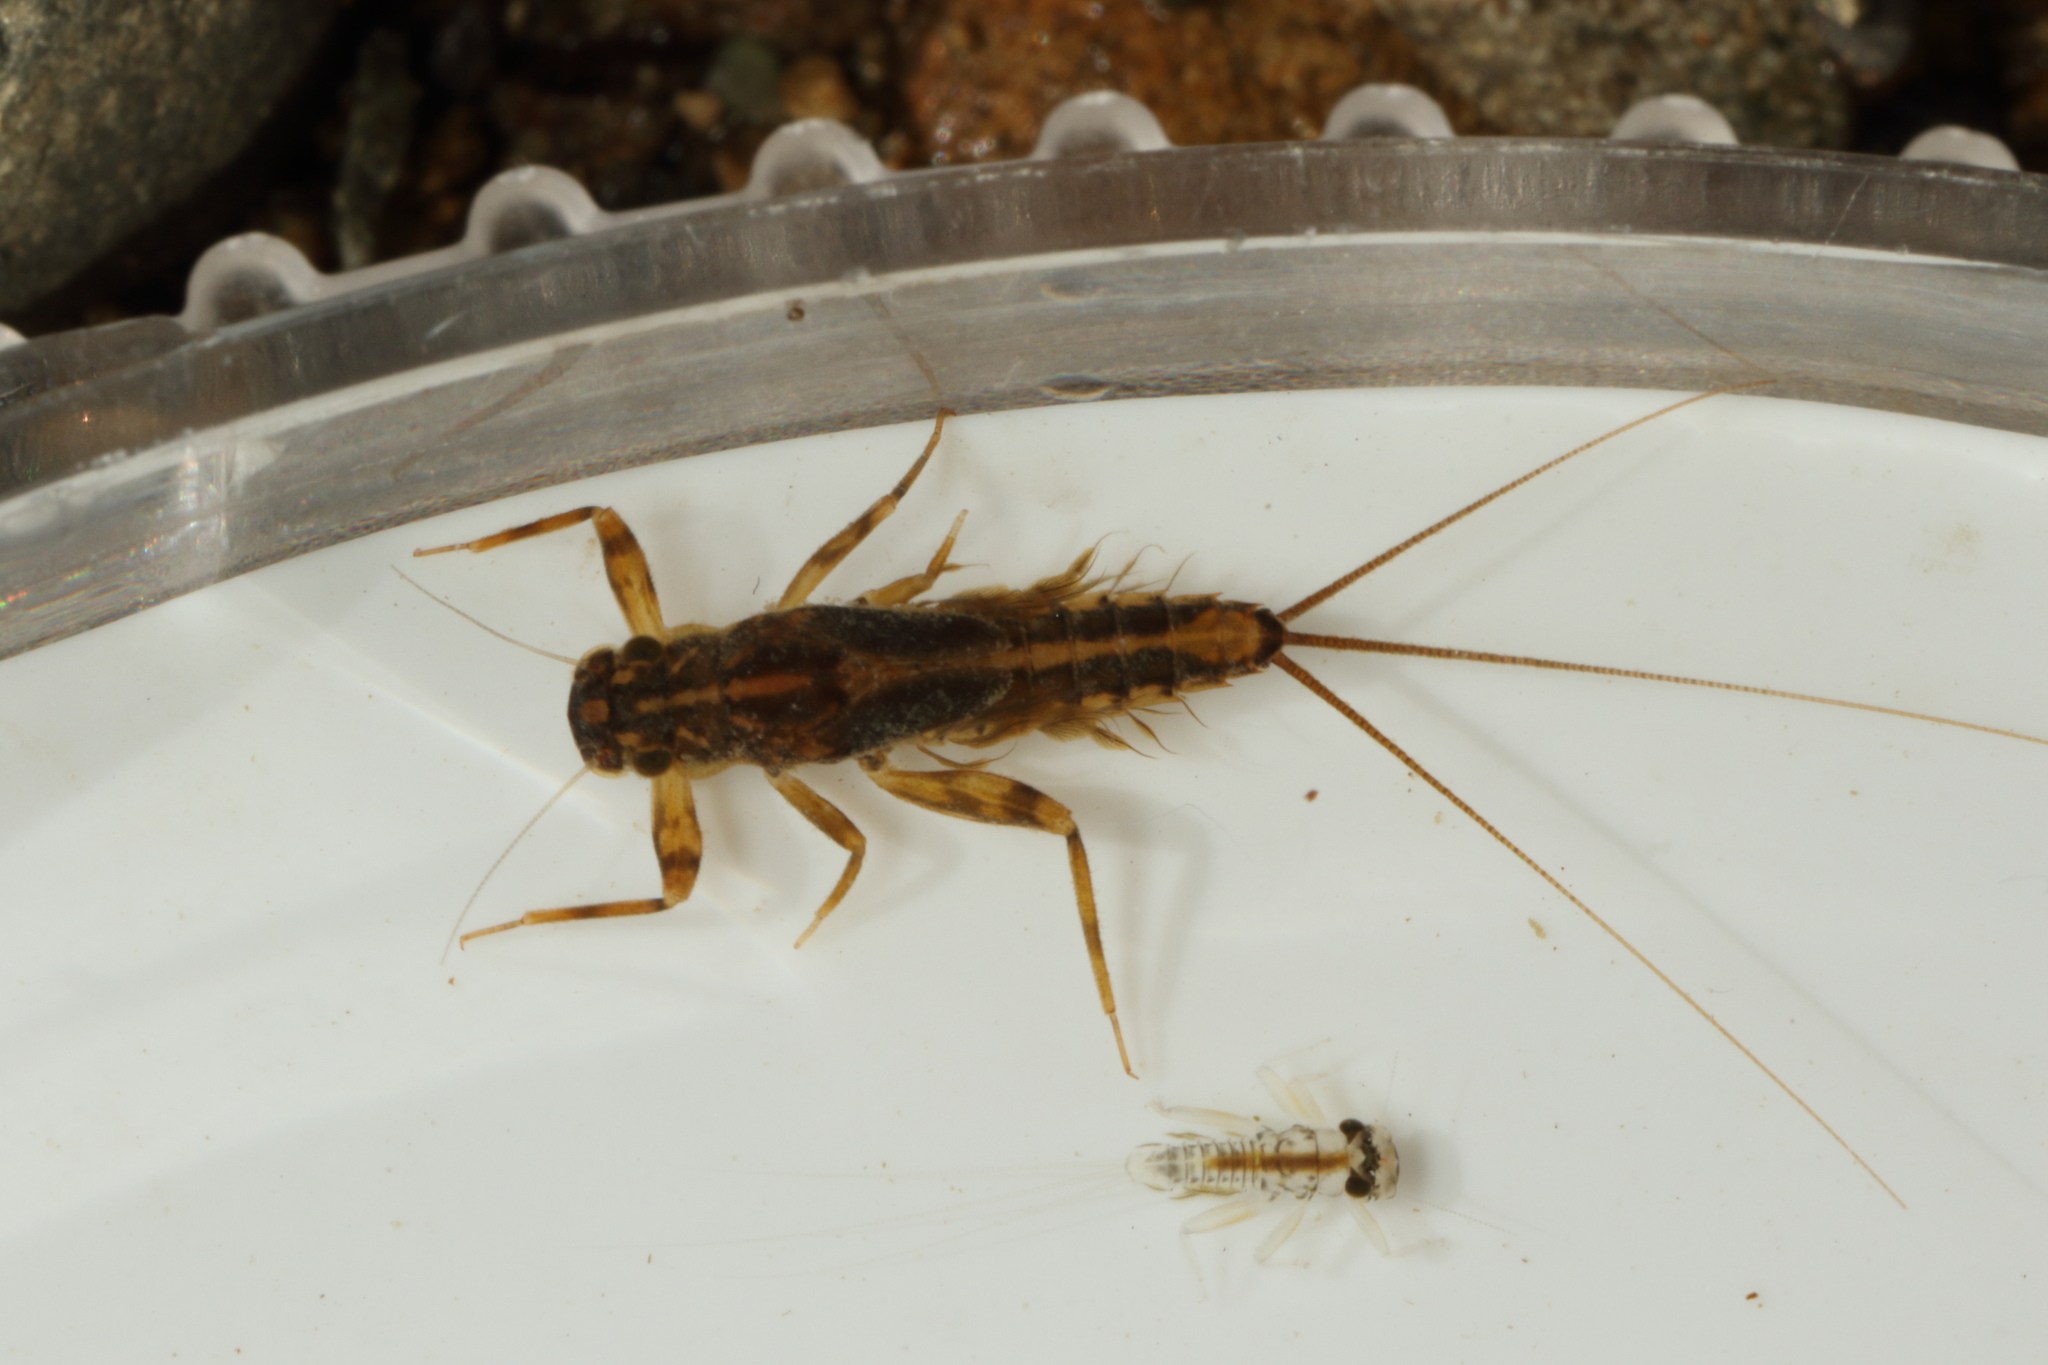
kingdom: Animalia
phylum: Arthropoda
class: Insecta
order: Ephemeroptera
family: Leptophlebiidae
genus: Zephlebia
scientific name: Zephlebia versicolor
